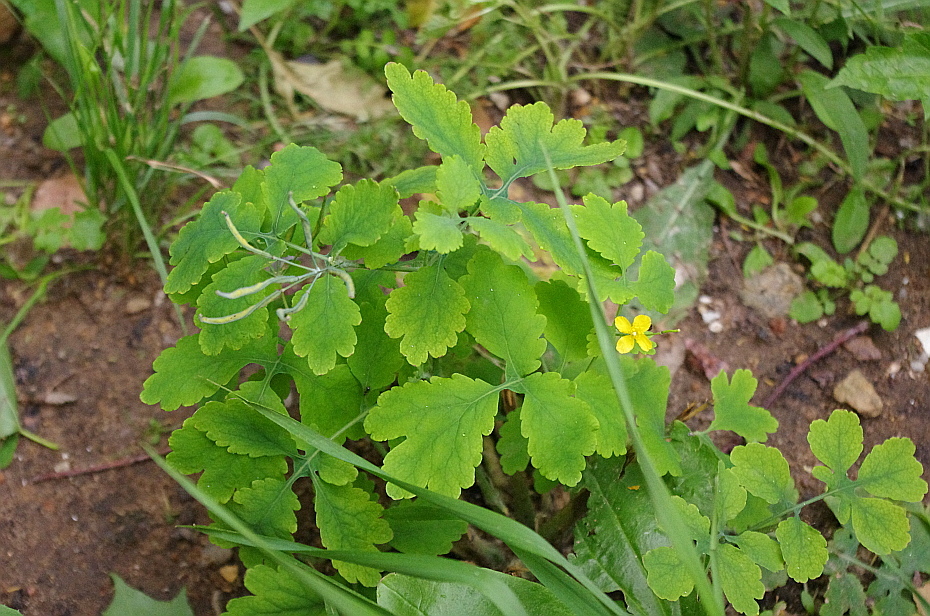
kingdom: Plantae
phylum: Tracheophyta
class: Magnoliopsida
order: Ranunculales
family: Papaveraceae
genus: Chelidonium
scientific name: Chelidonium majus
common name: Greater celandine
